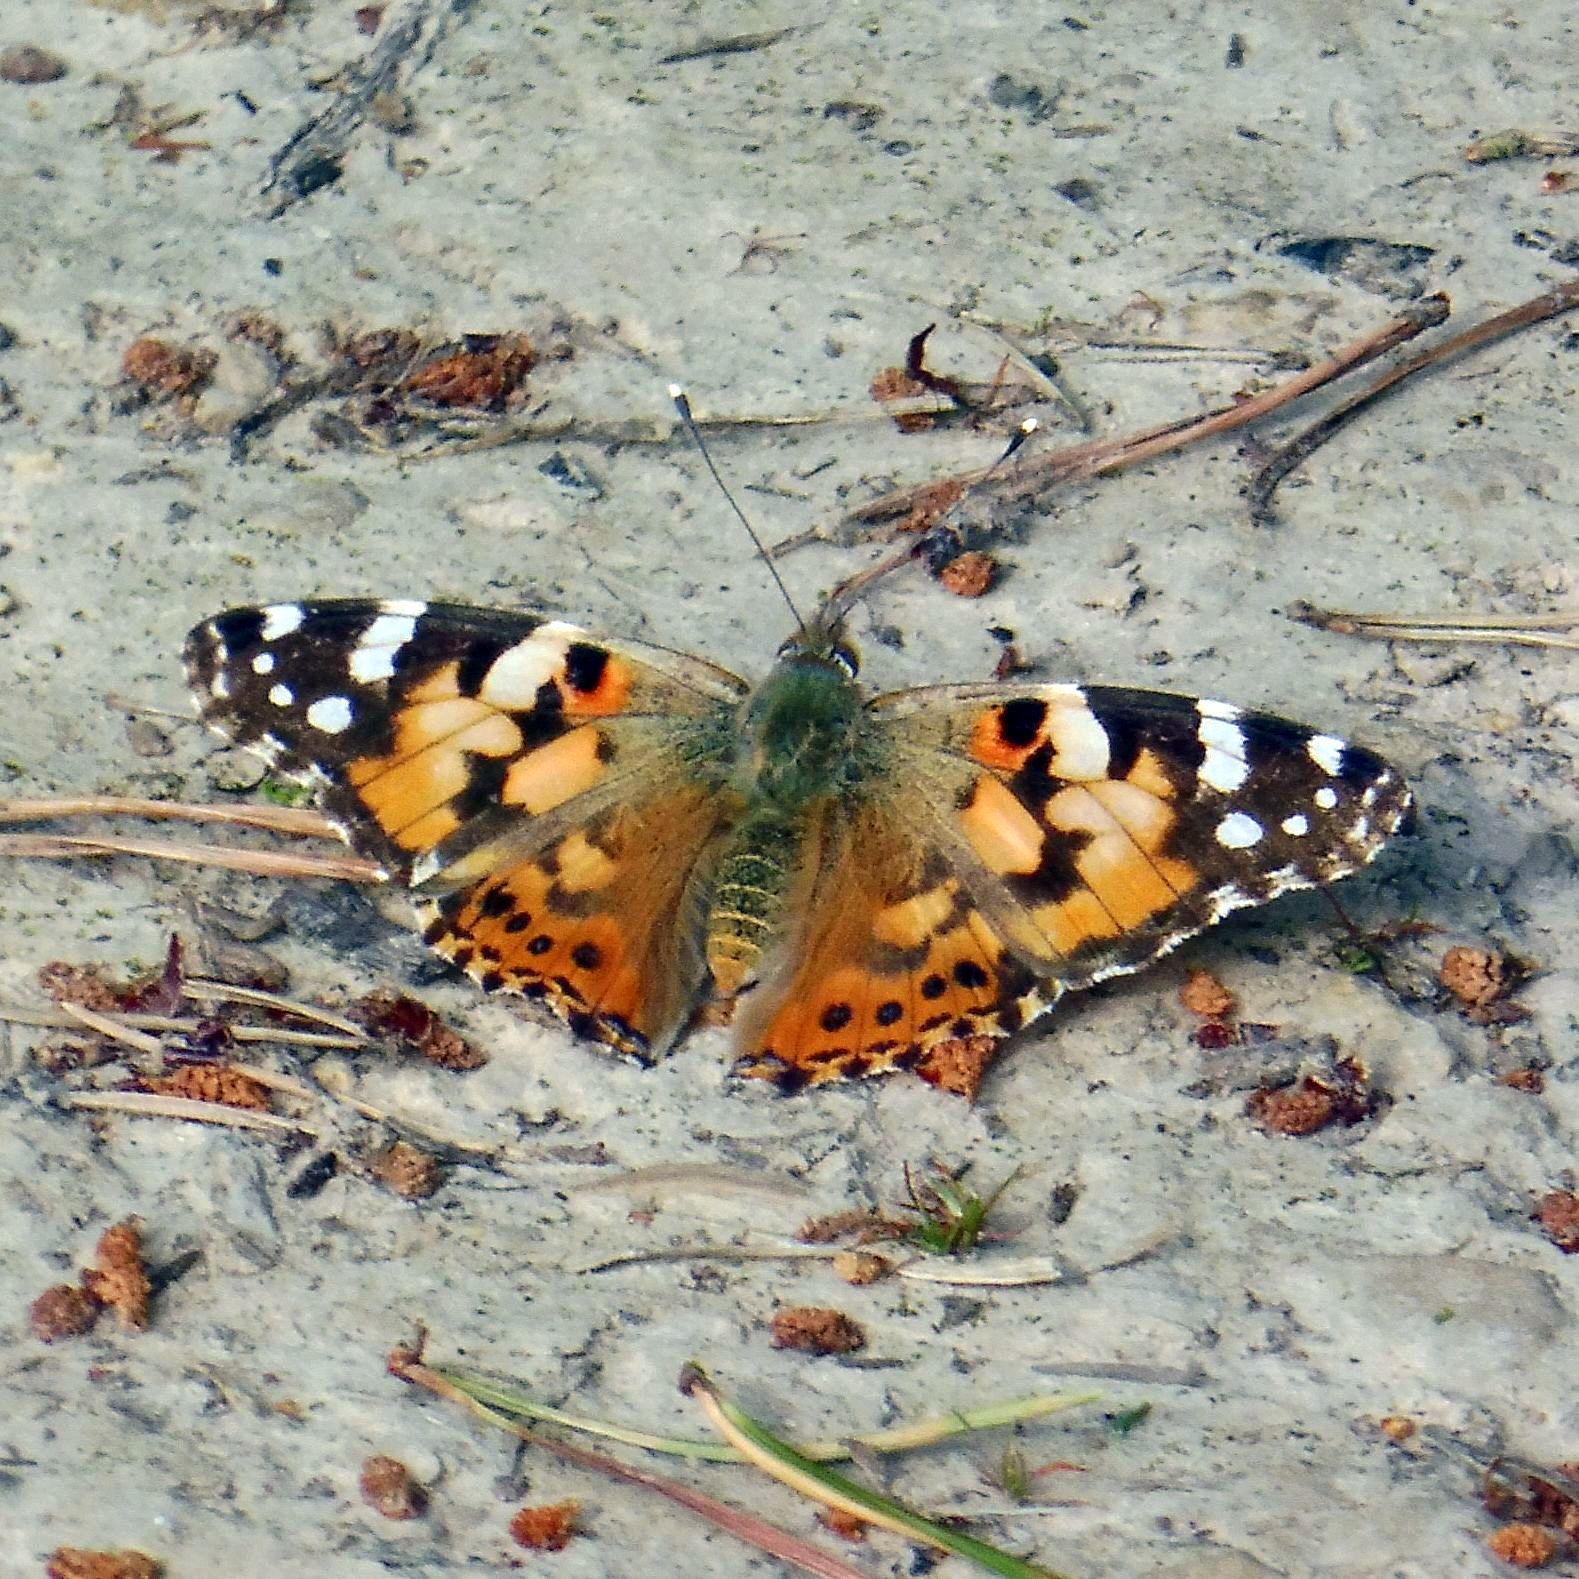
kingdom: Animalia
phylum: Arthropoda
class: Insecta
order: Lepidoptera
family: Nymphalidae
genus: Vanessa
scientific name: Vanessa cardui
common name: Painted lady
